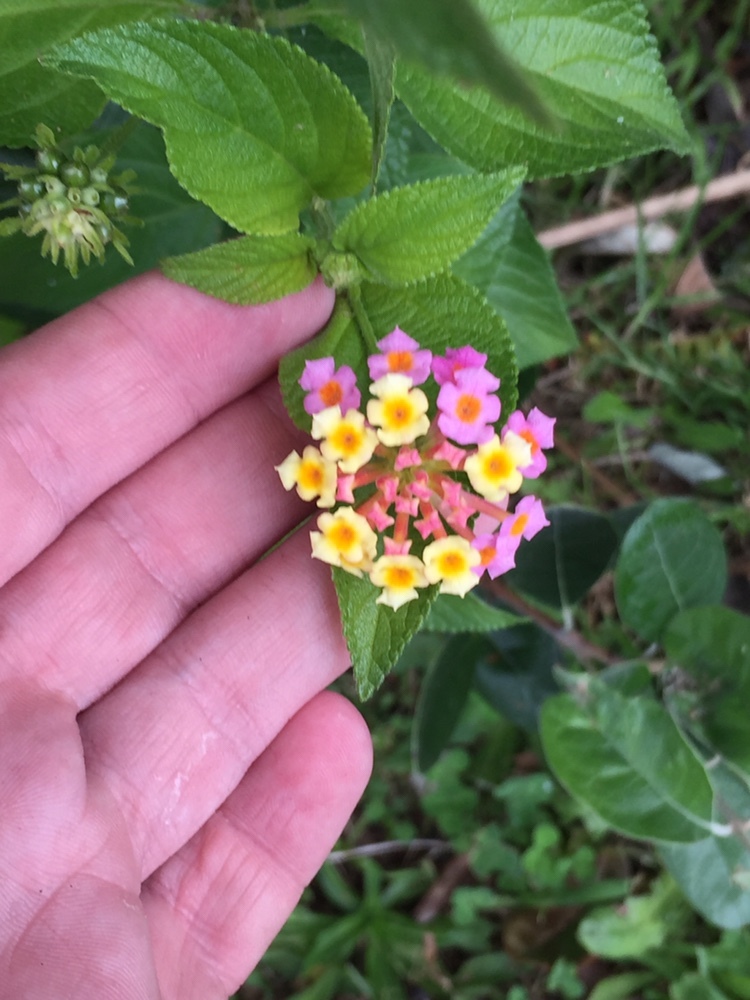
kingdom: Plantae
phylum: Tracheophyta
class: Magnoliopsida
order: Lamiales
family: Verbenaceae
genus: Lantana
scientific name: Lantana camara
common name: Lantana
